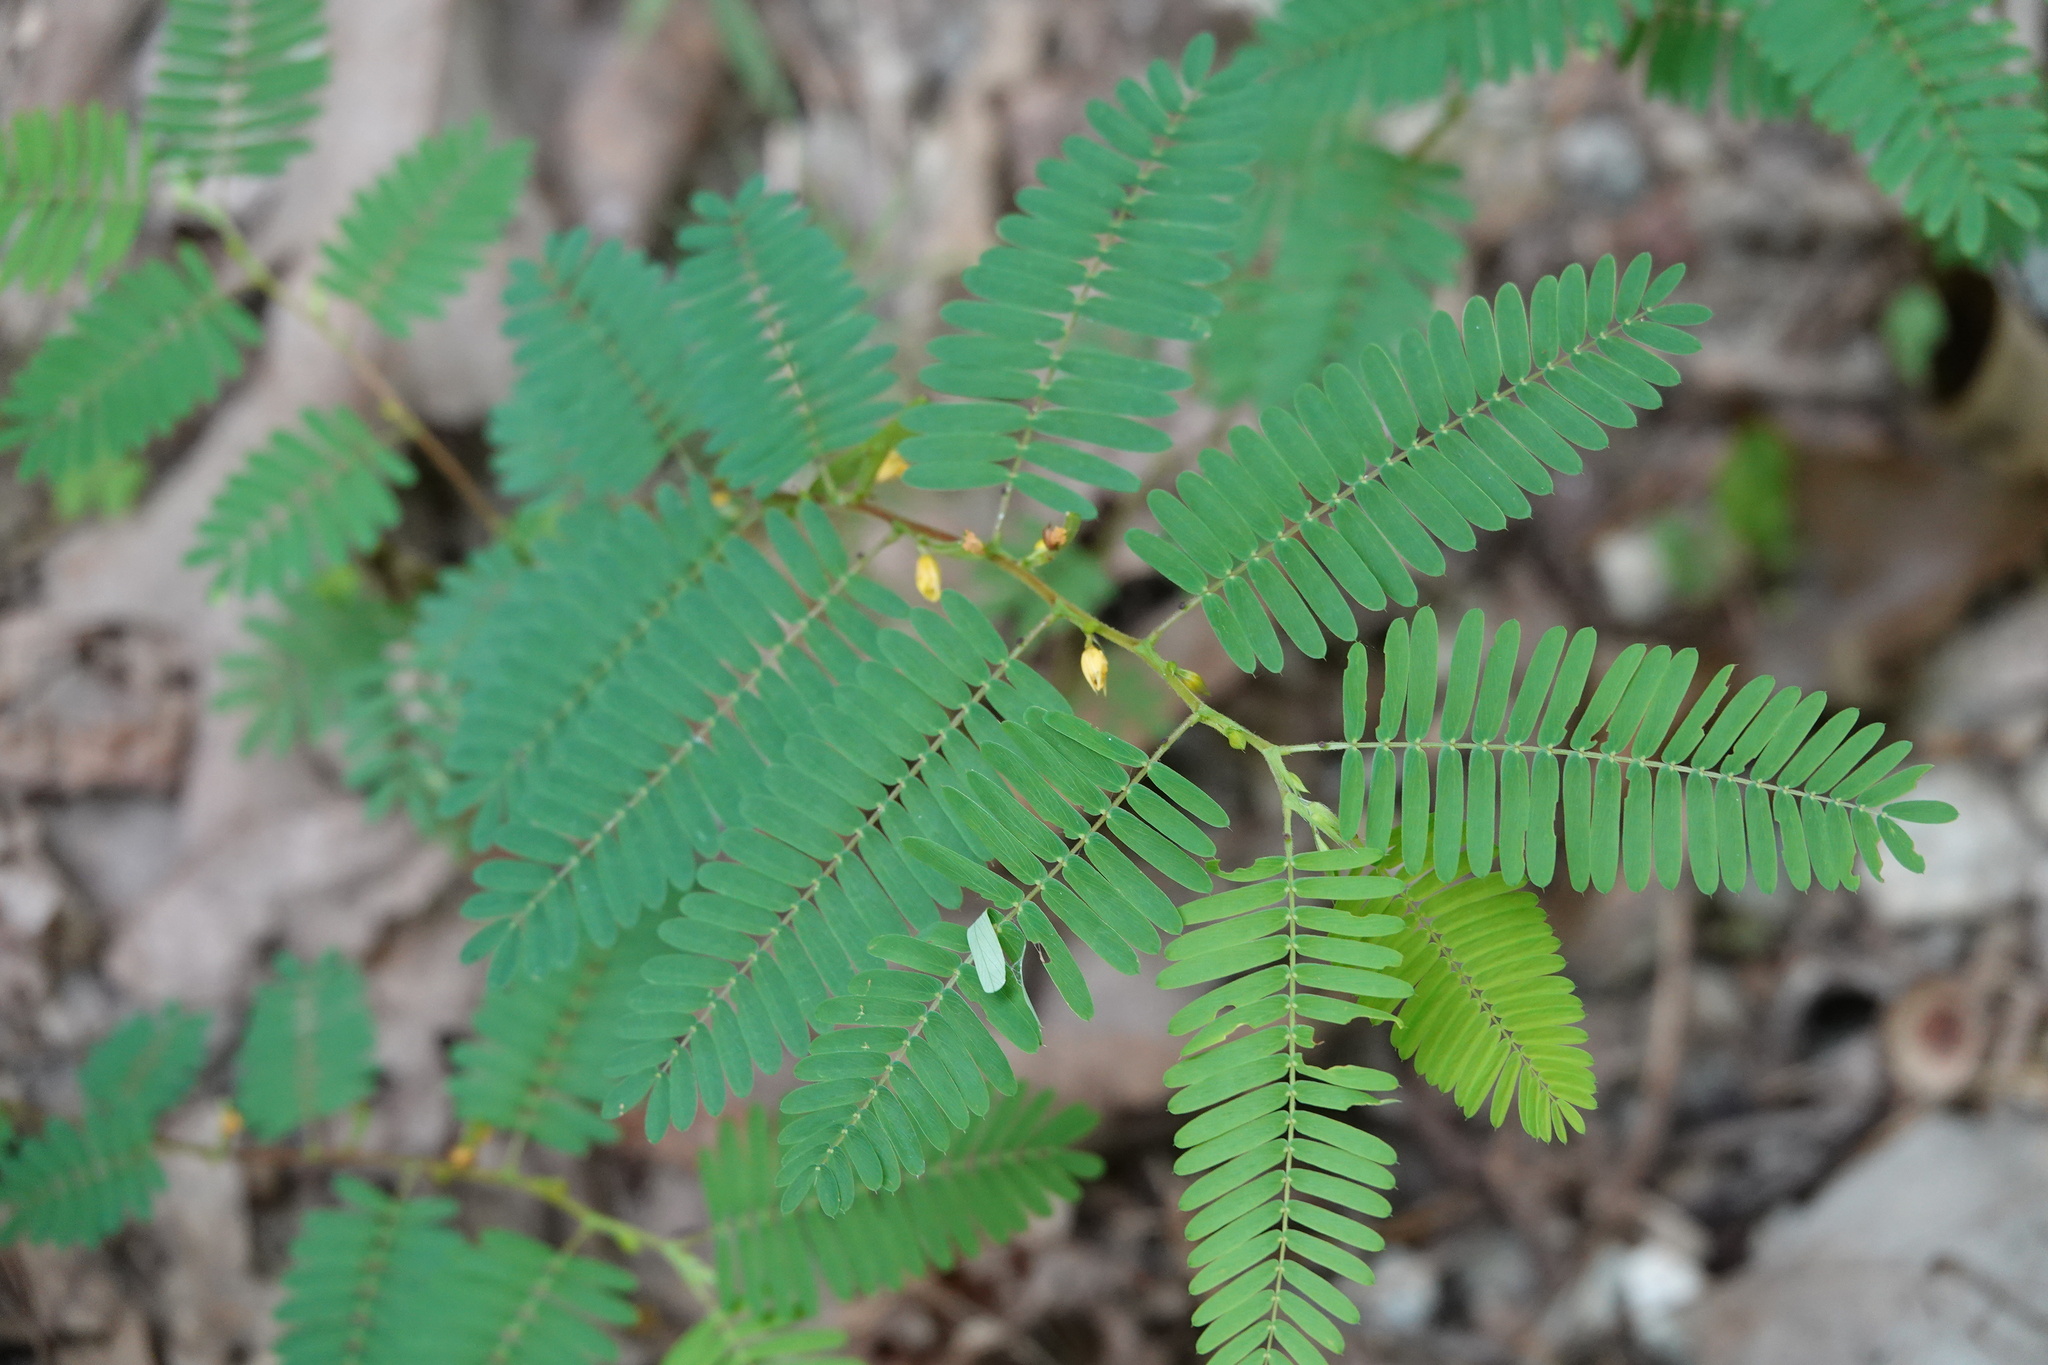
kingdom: Plantae
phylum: Tracheophyta
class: Magnoliopsida
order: Fabales
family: Fabaceae
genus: Chamaecrista
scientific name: Chamaecrista nictitans
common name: Sensitive cassia
